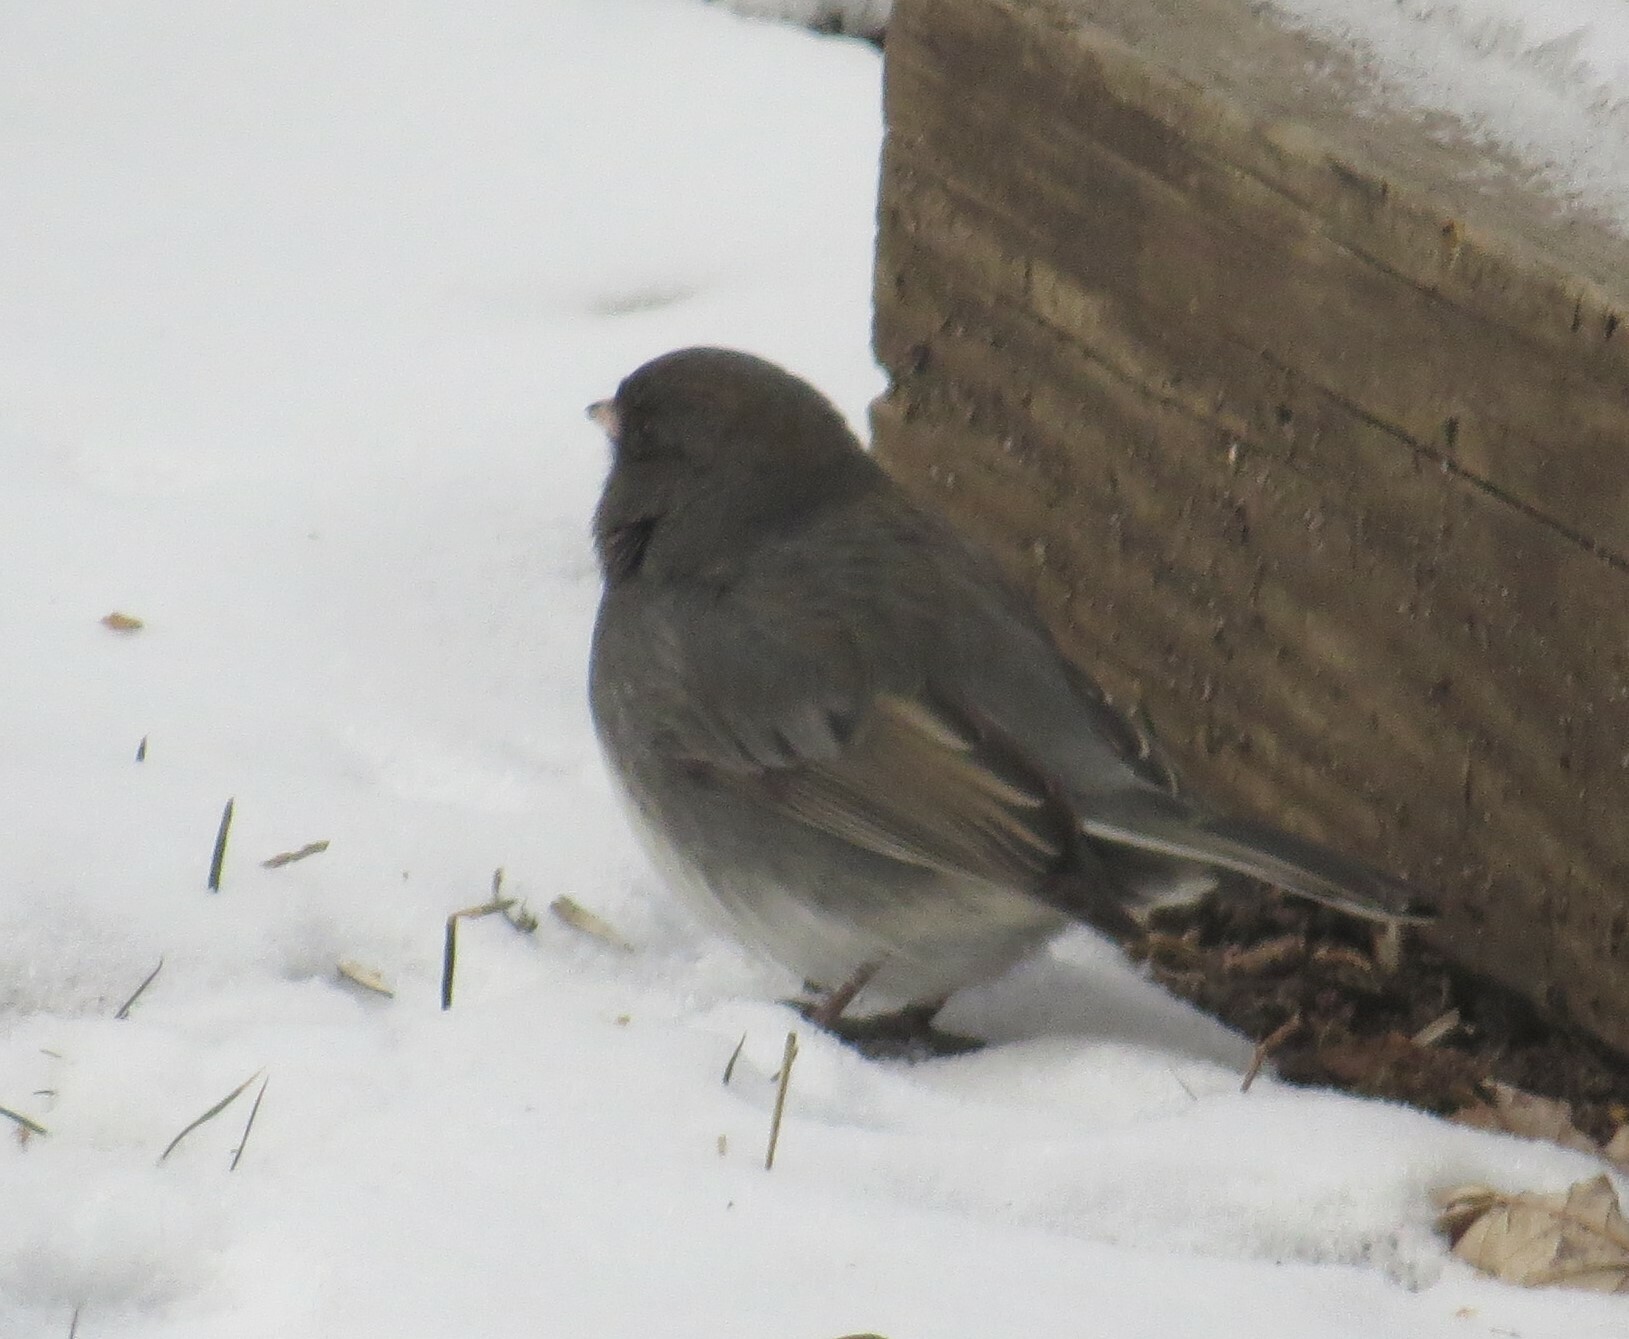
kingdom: Animalia
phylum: Chordata
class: Aves
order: Passeriformes
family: Passerellidae
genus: Junco
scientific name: Junco hyemalis
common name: Dark-eyed junco
